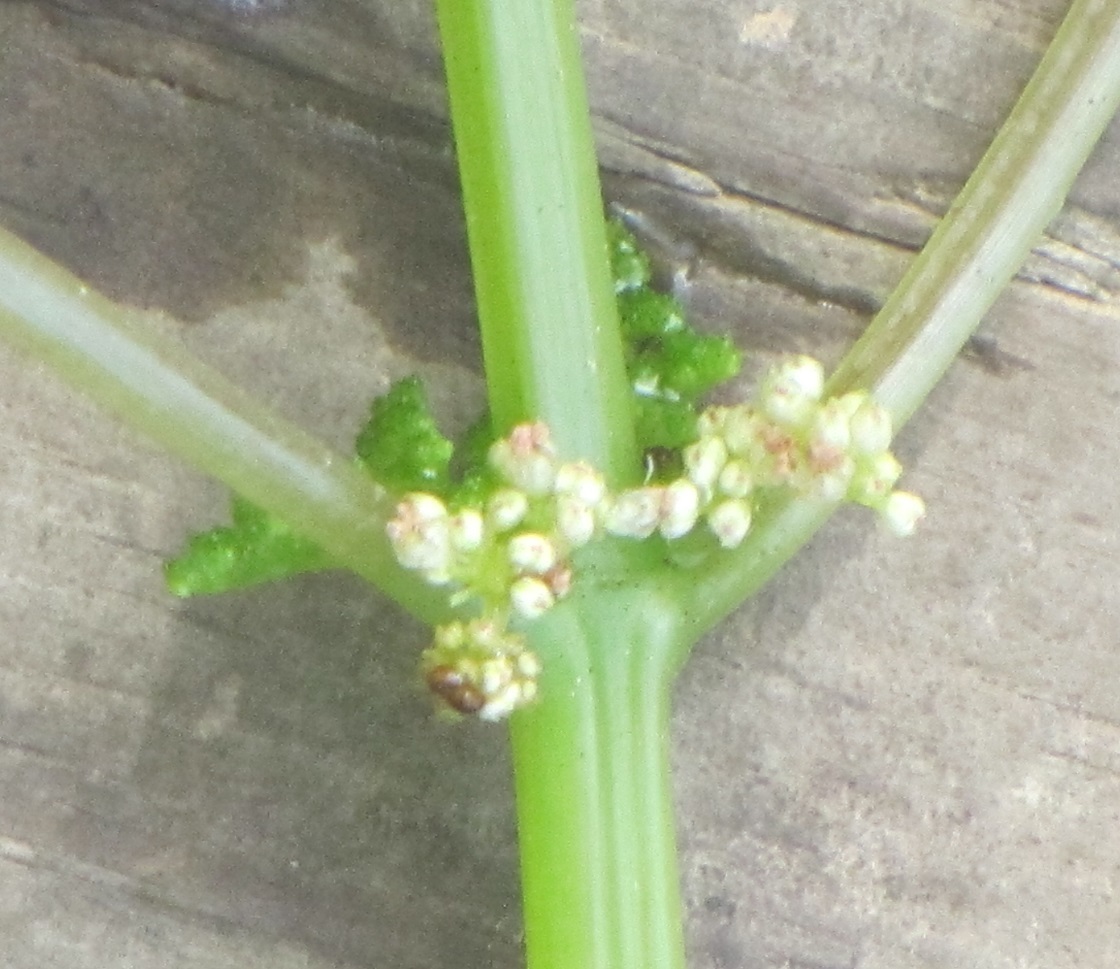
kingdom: Plantae
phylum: Tracheophyta
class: Magnoliopsida
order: Rosales
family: Urticaceae
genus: Pilea
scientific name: Pilea pumila
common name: Clearweed
